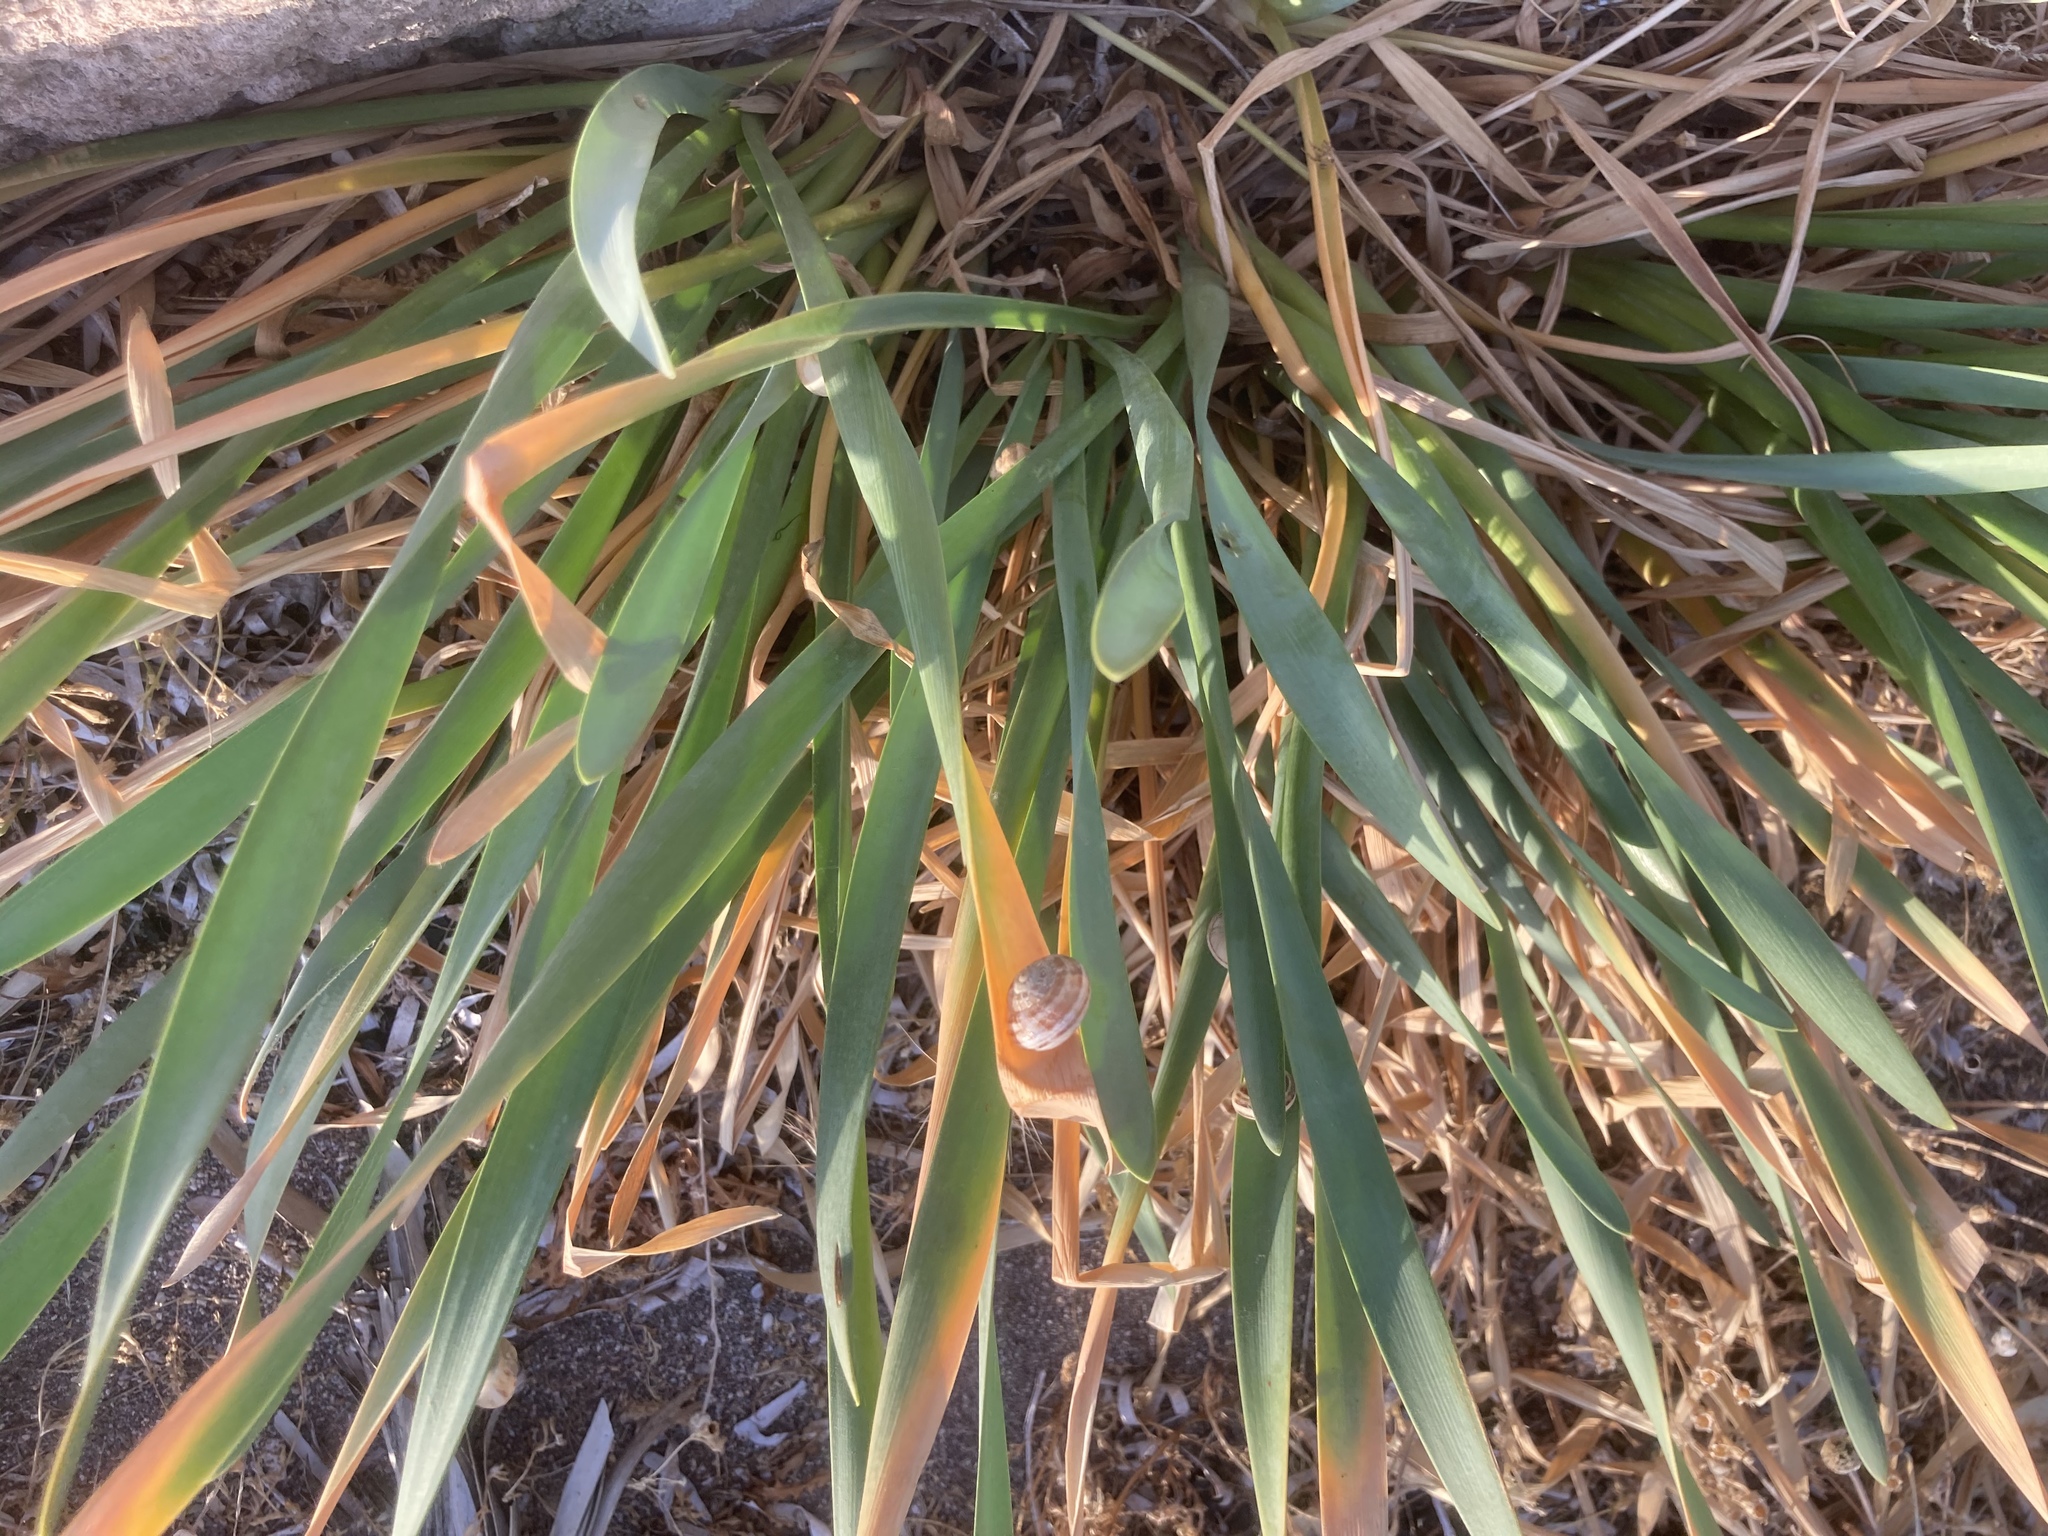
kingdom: Animalia
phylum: Mollusca
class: Gastropoda
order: Stylommatophora
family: Helicidae
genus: Eobania
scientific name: Eobania vermiculata
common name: Chocolateband snail
